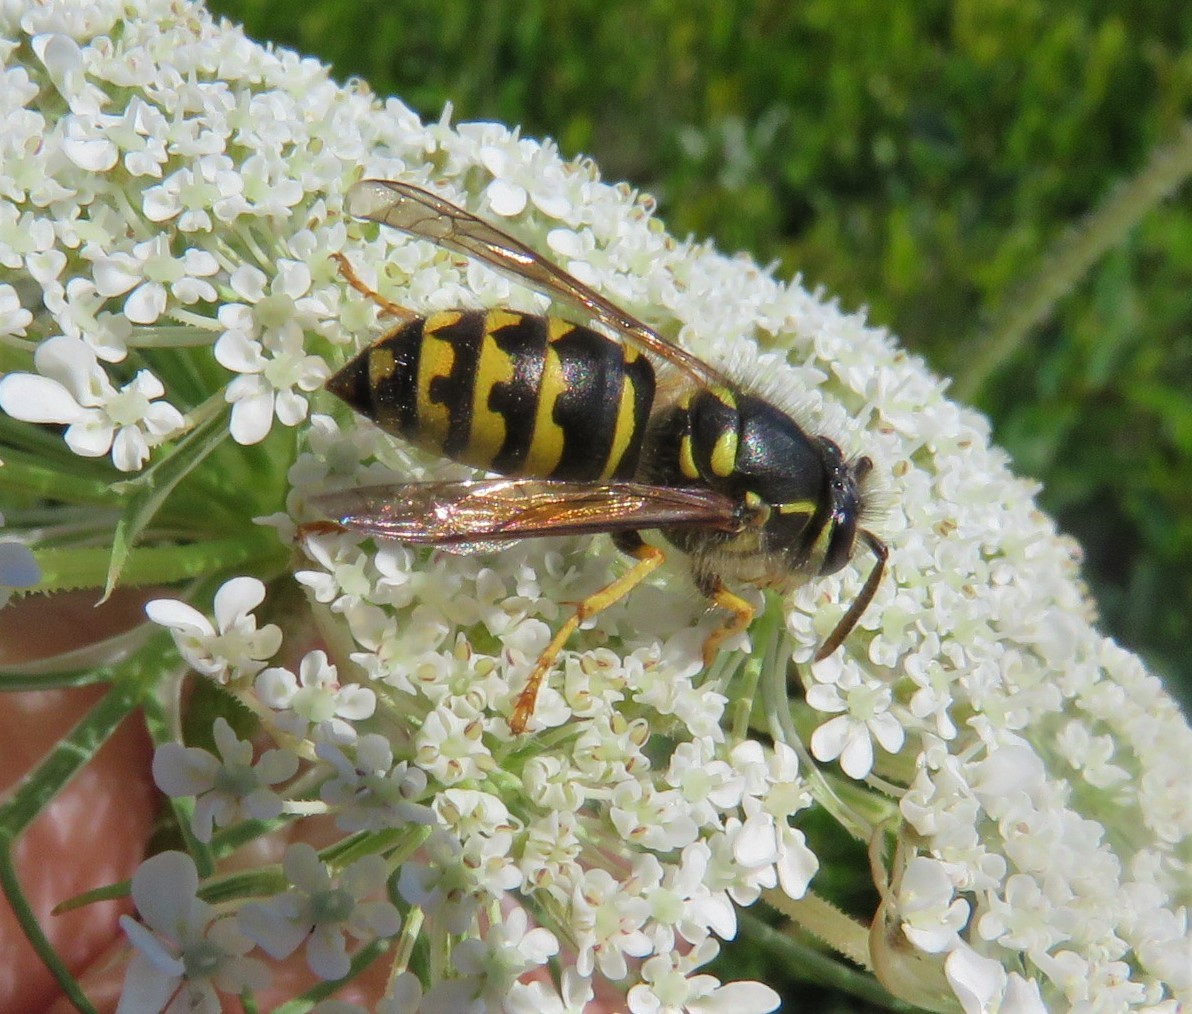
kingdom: Animalia
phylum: Arthropoda
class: Insecta
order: Hymenoptera
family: Vespidae
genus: Dolichovespula
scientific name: Dolichovespula arenaria
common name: Aerial yellowjacket
